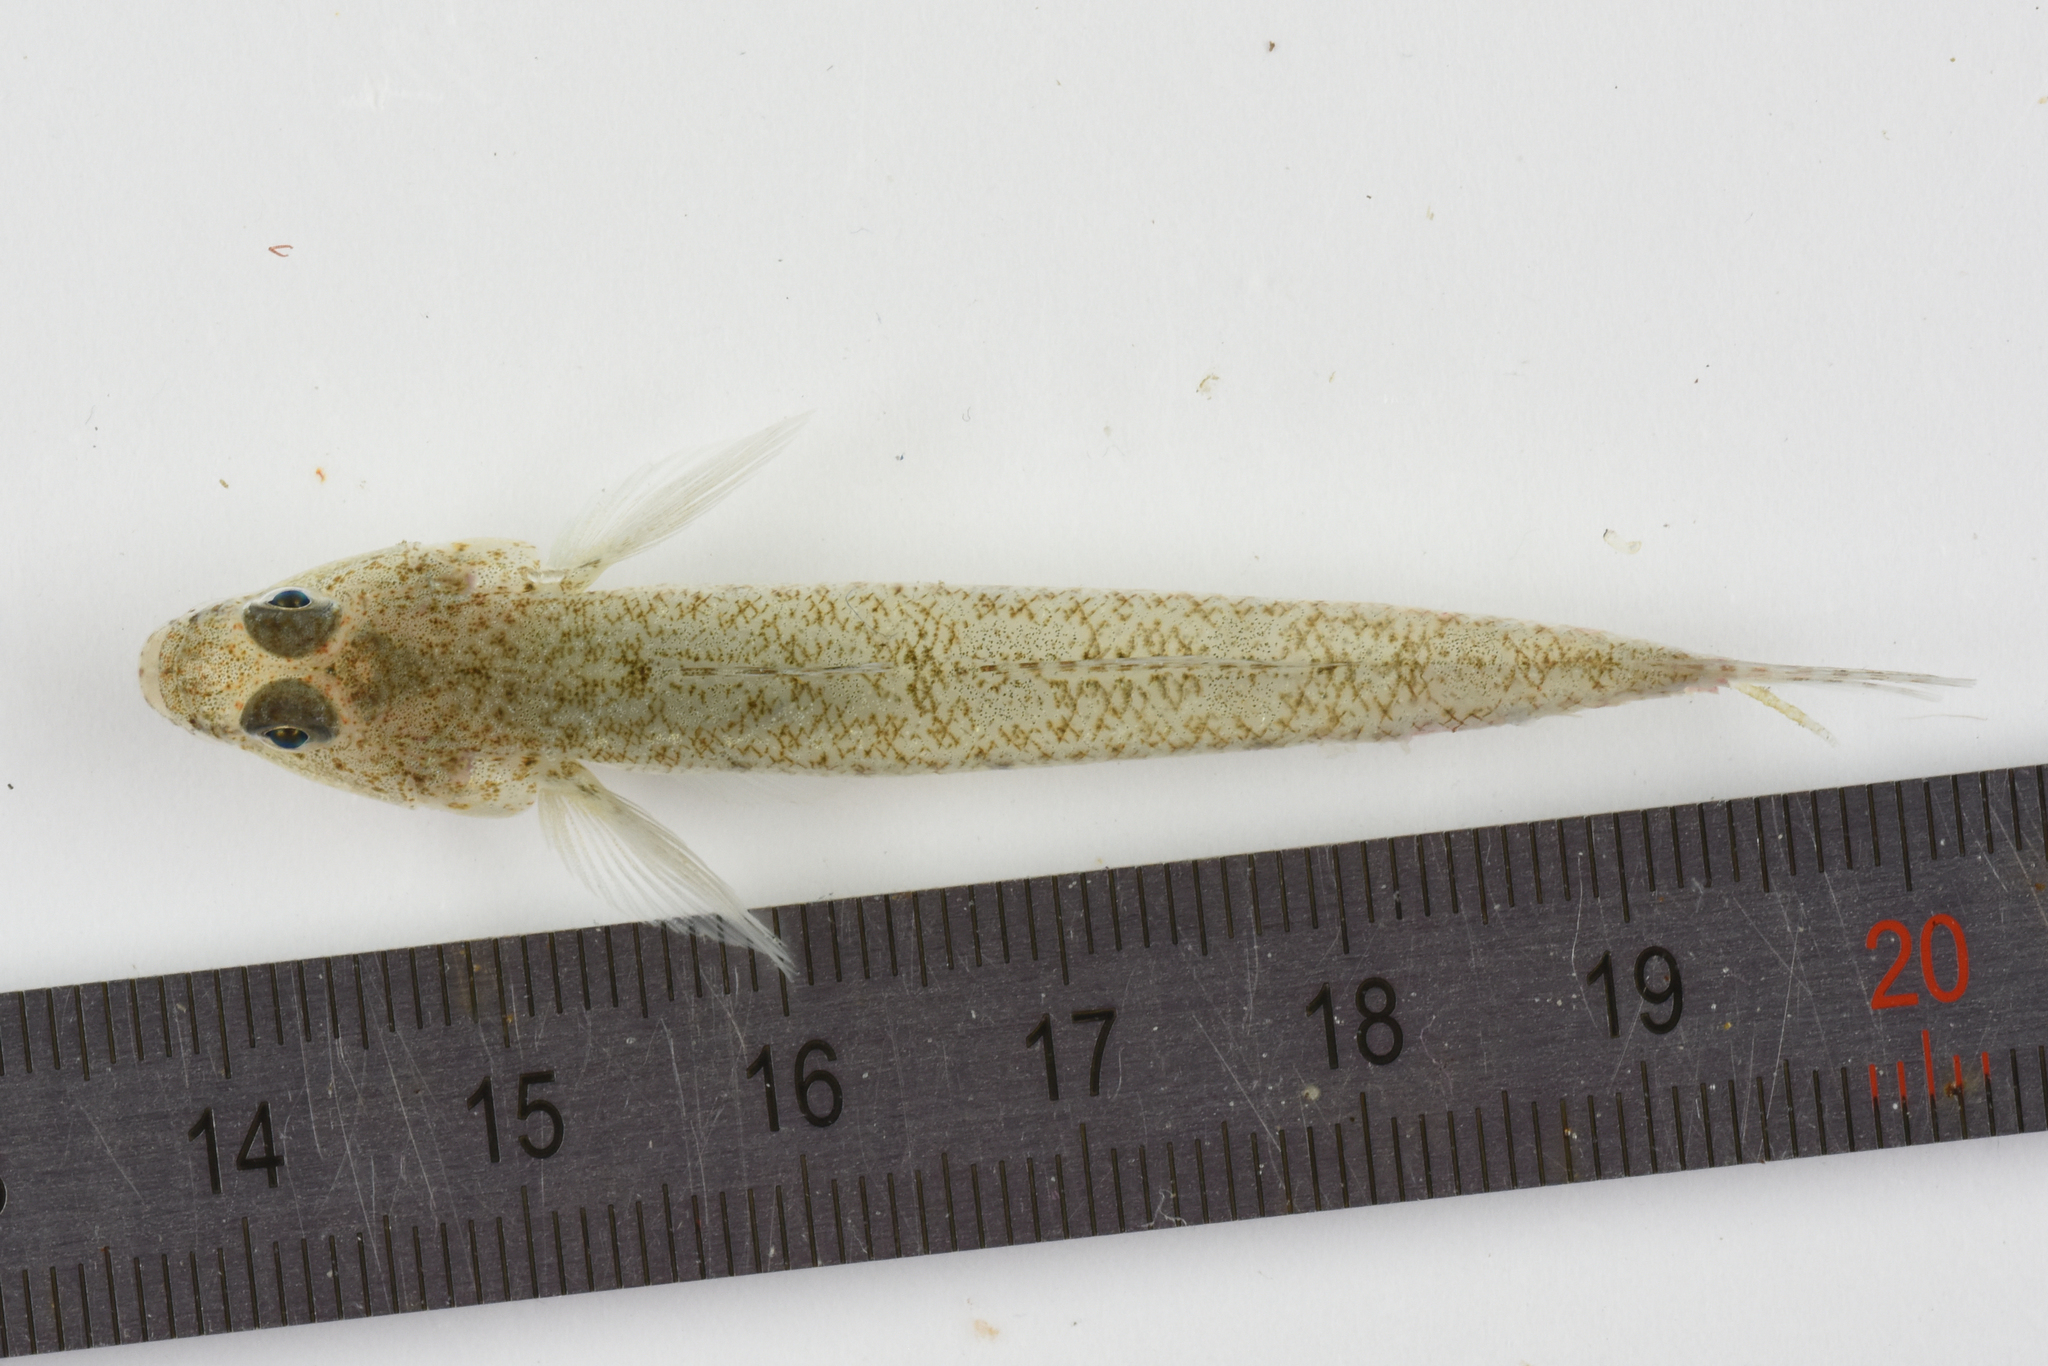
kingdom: Animalia
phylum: Chordata
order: Perciformes
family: Gobiidae
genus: Pomatoschistus
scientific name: Pomatoschistus minutus
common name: Sand goby
